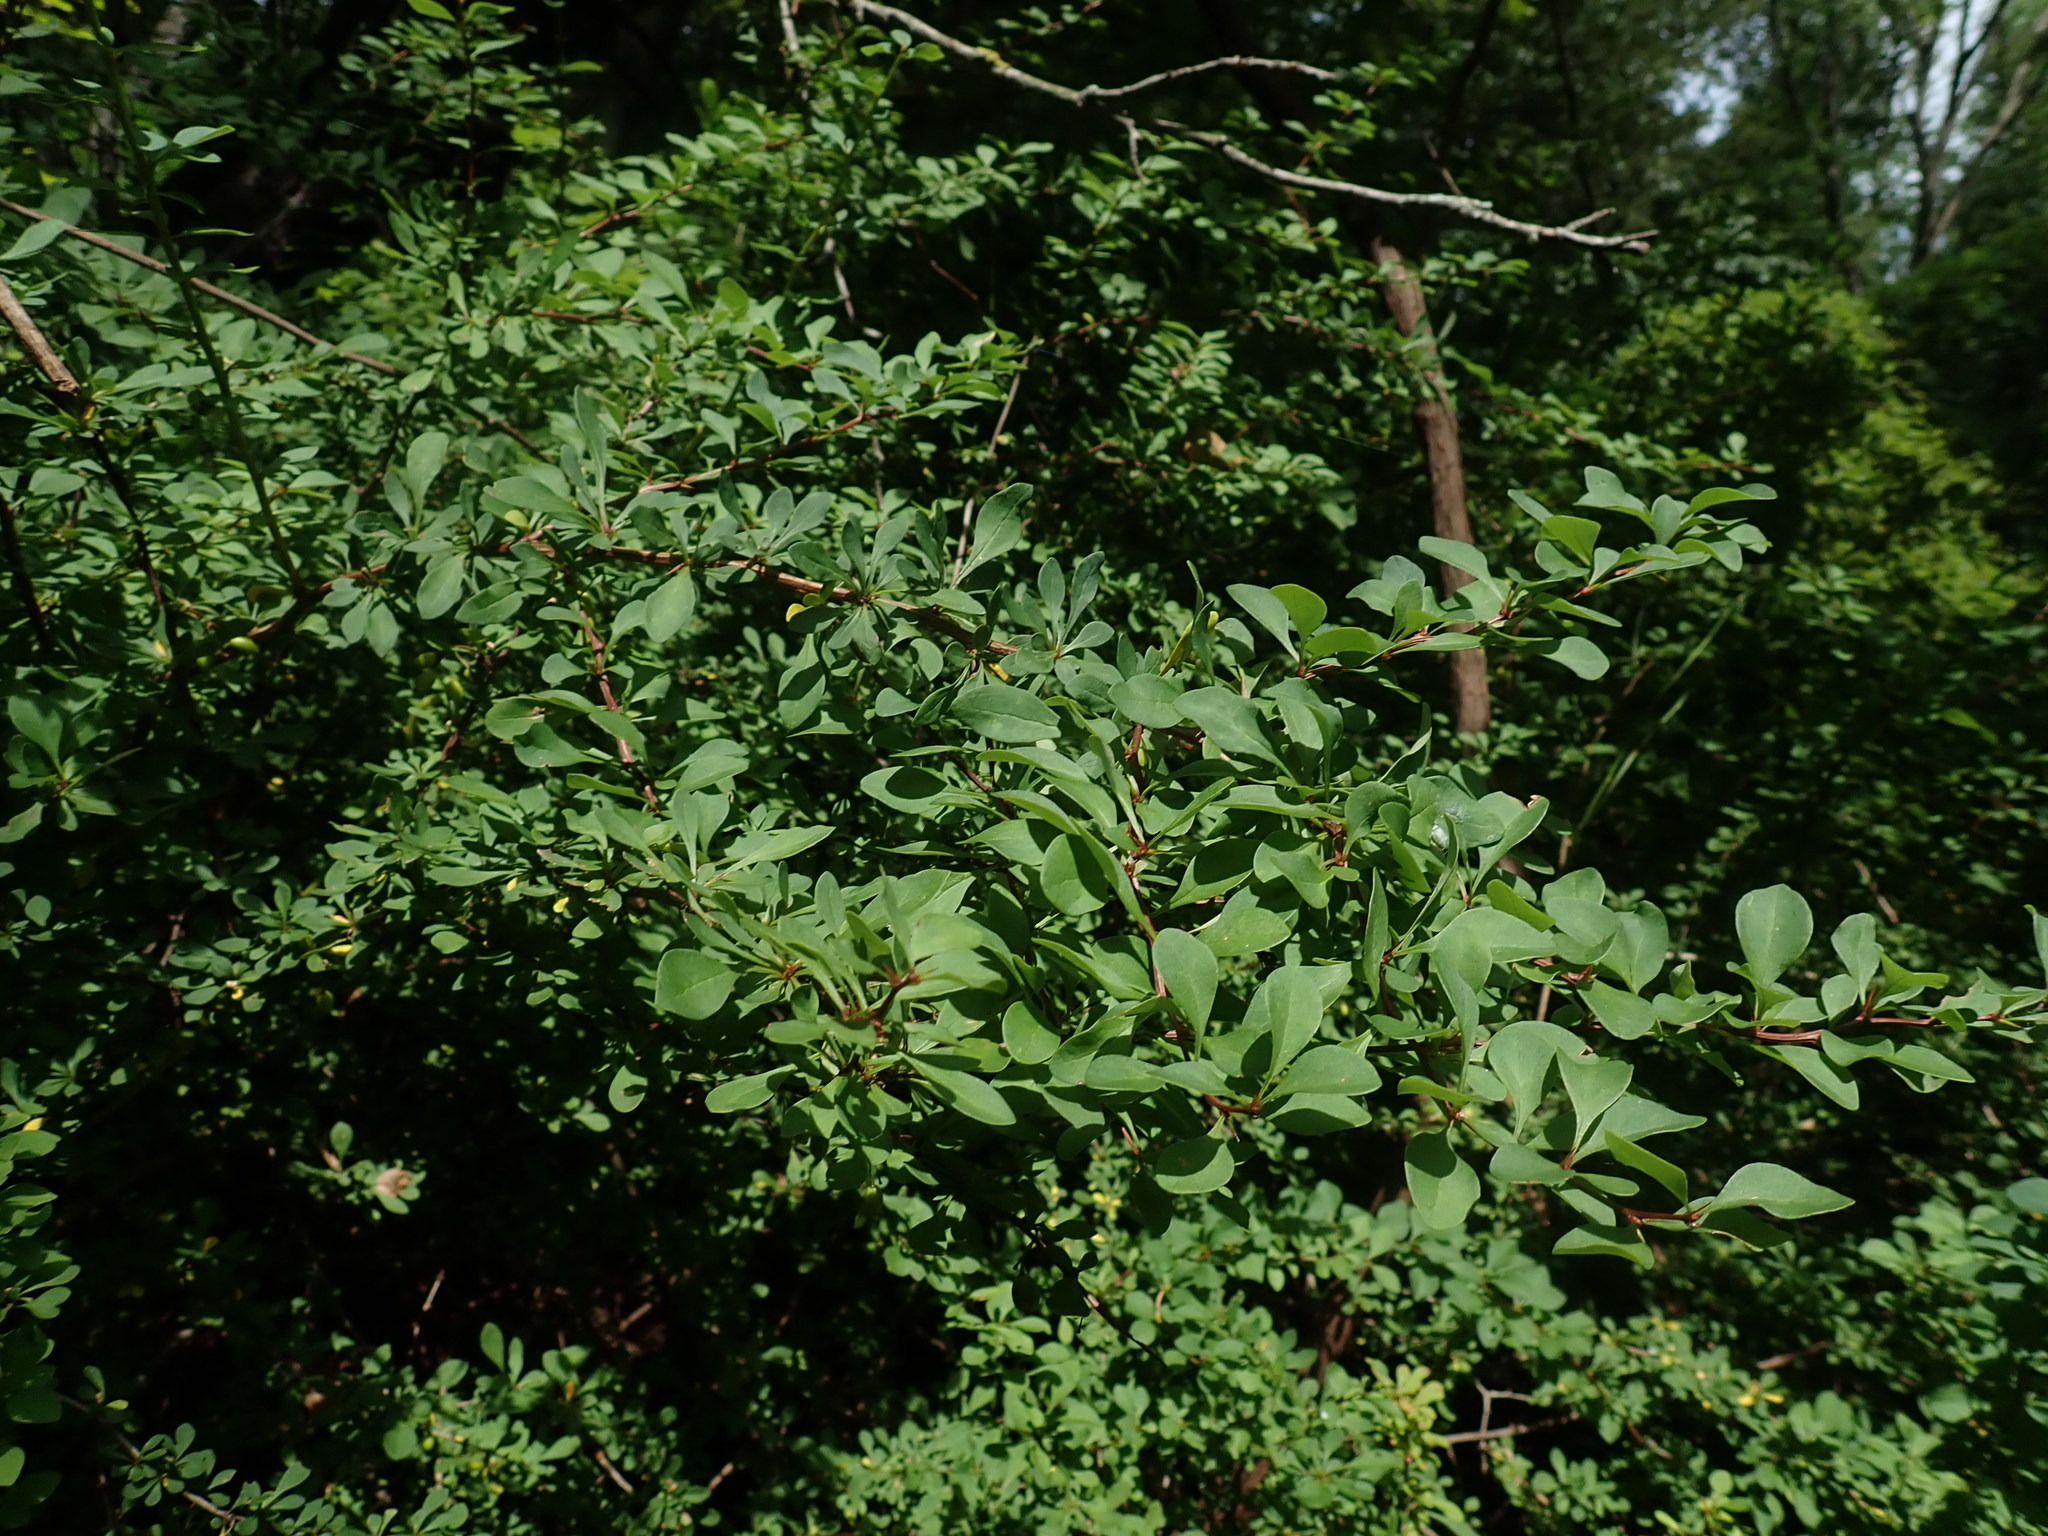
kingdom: Plantae
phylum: Tracheophyta
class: Magnoliopsida
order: Ranunculales
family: Berberidaceae
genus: Berberis
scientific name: Berberis thunbergii
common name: Japanese barberry
